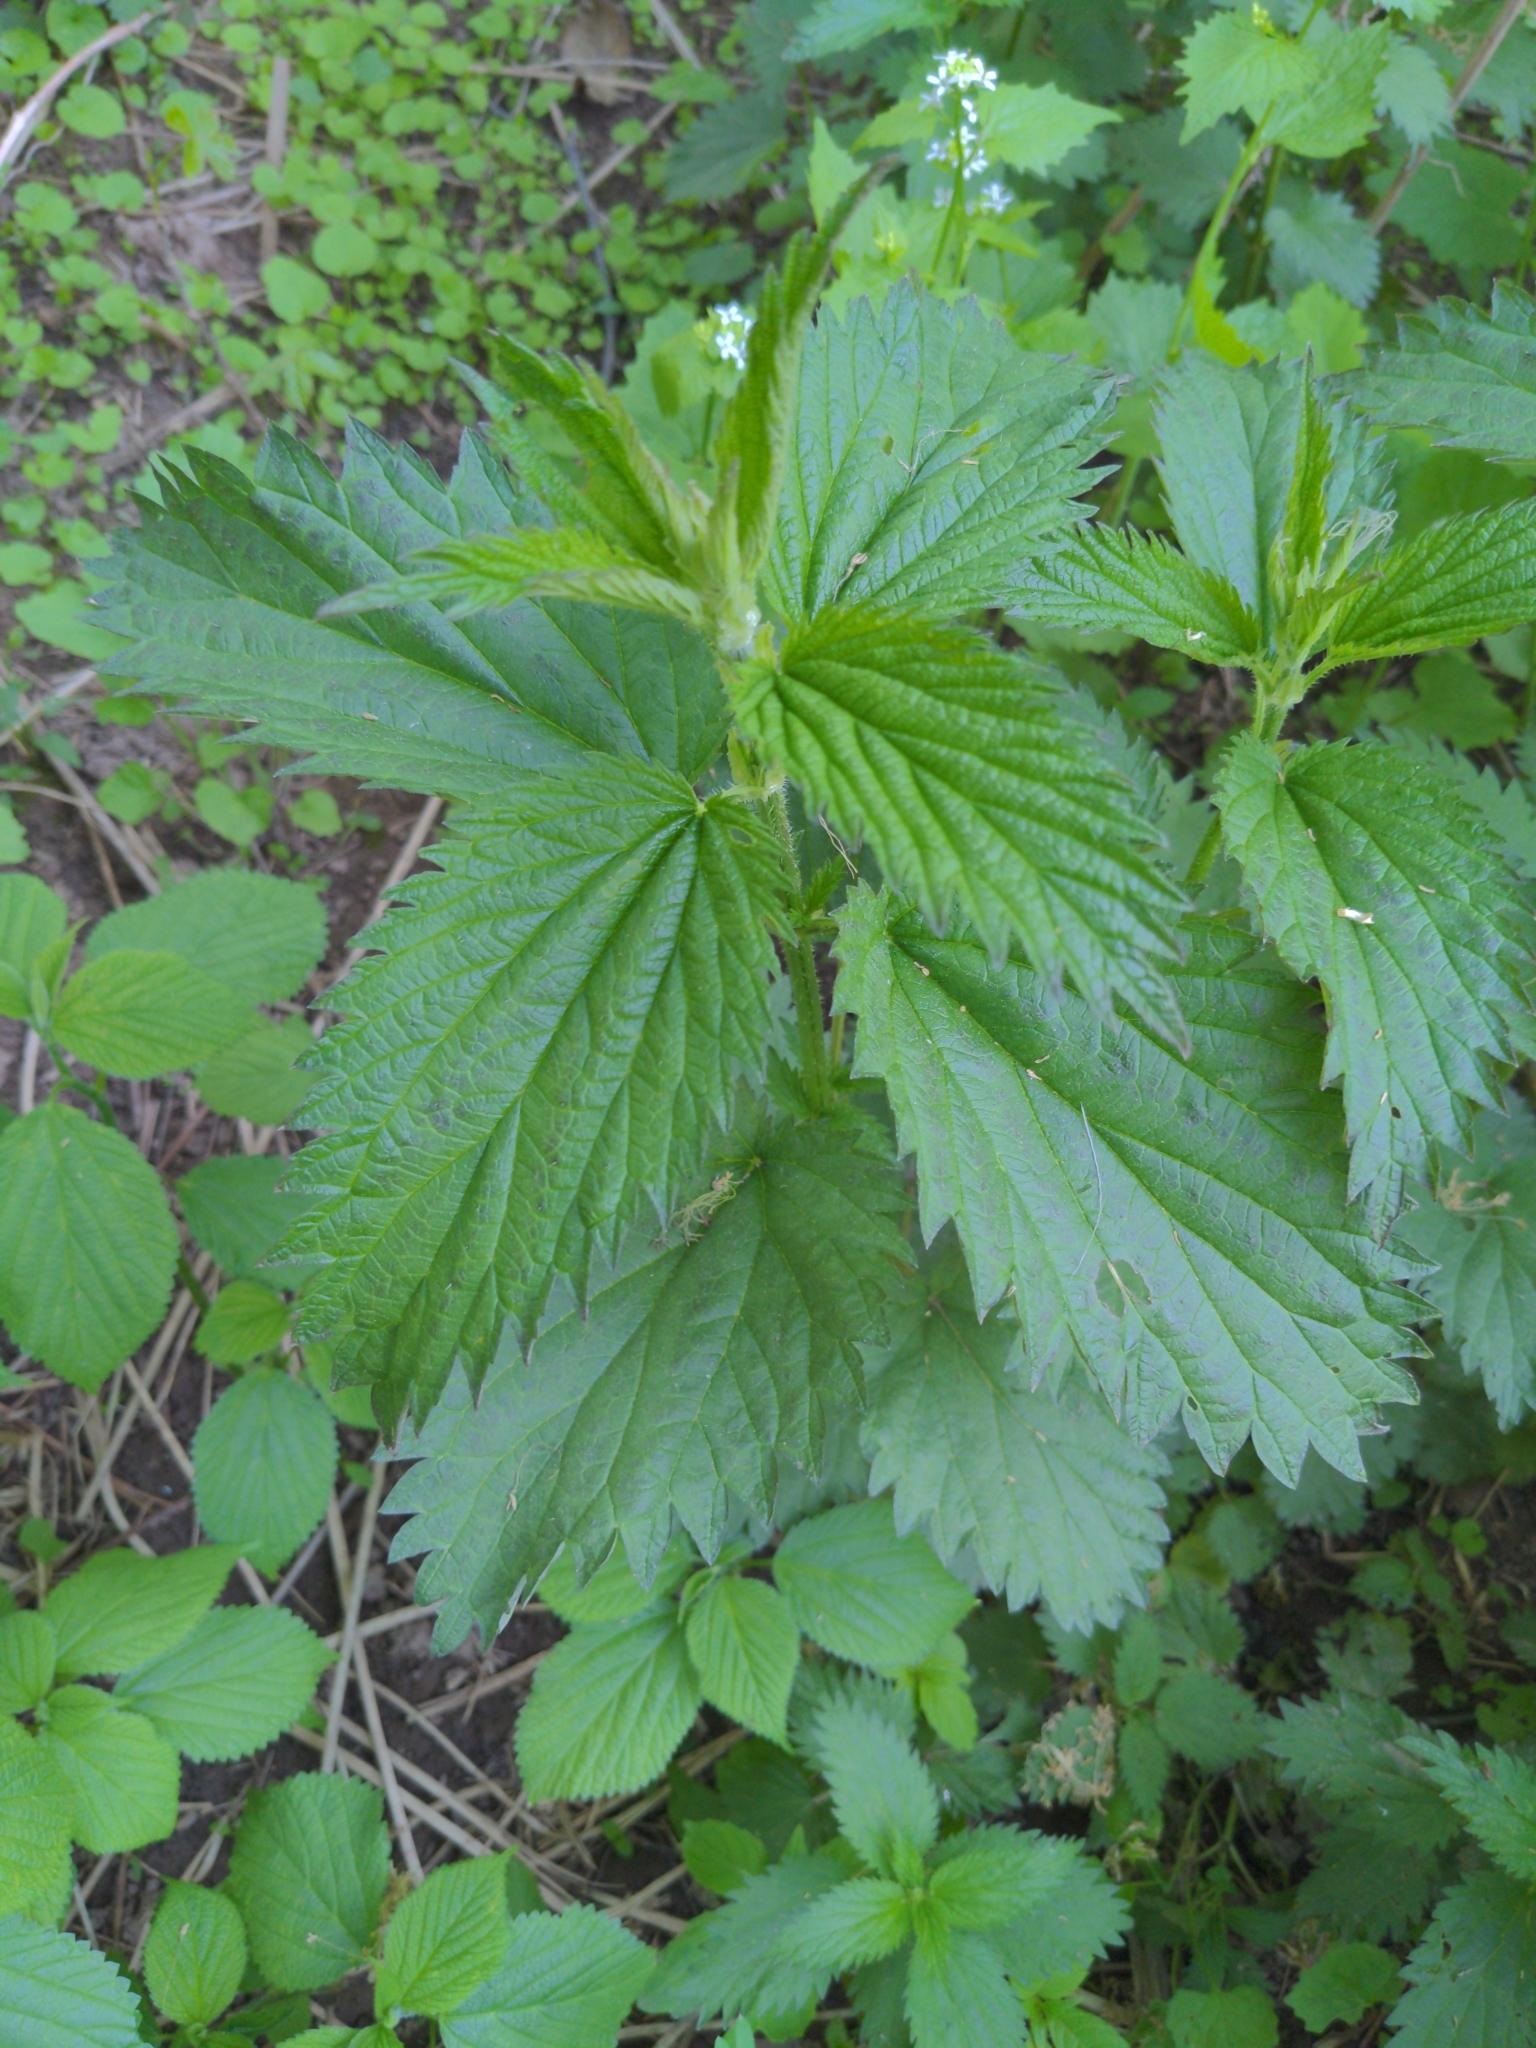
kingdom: Plantae
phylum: Tracheophyta
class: Magnoliopsida
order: Rosales
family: Urticaceae
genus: Urtica
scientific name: Urtica dioica
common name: Common nettle
